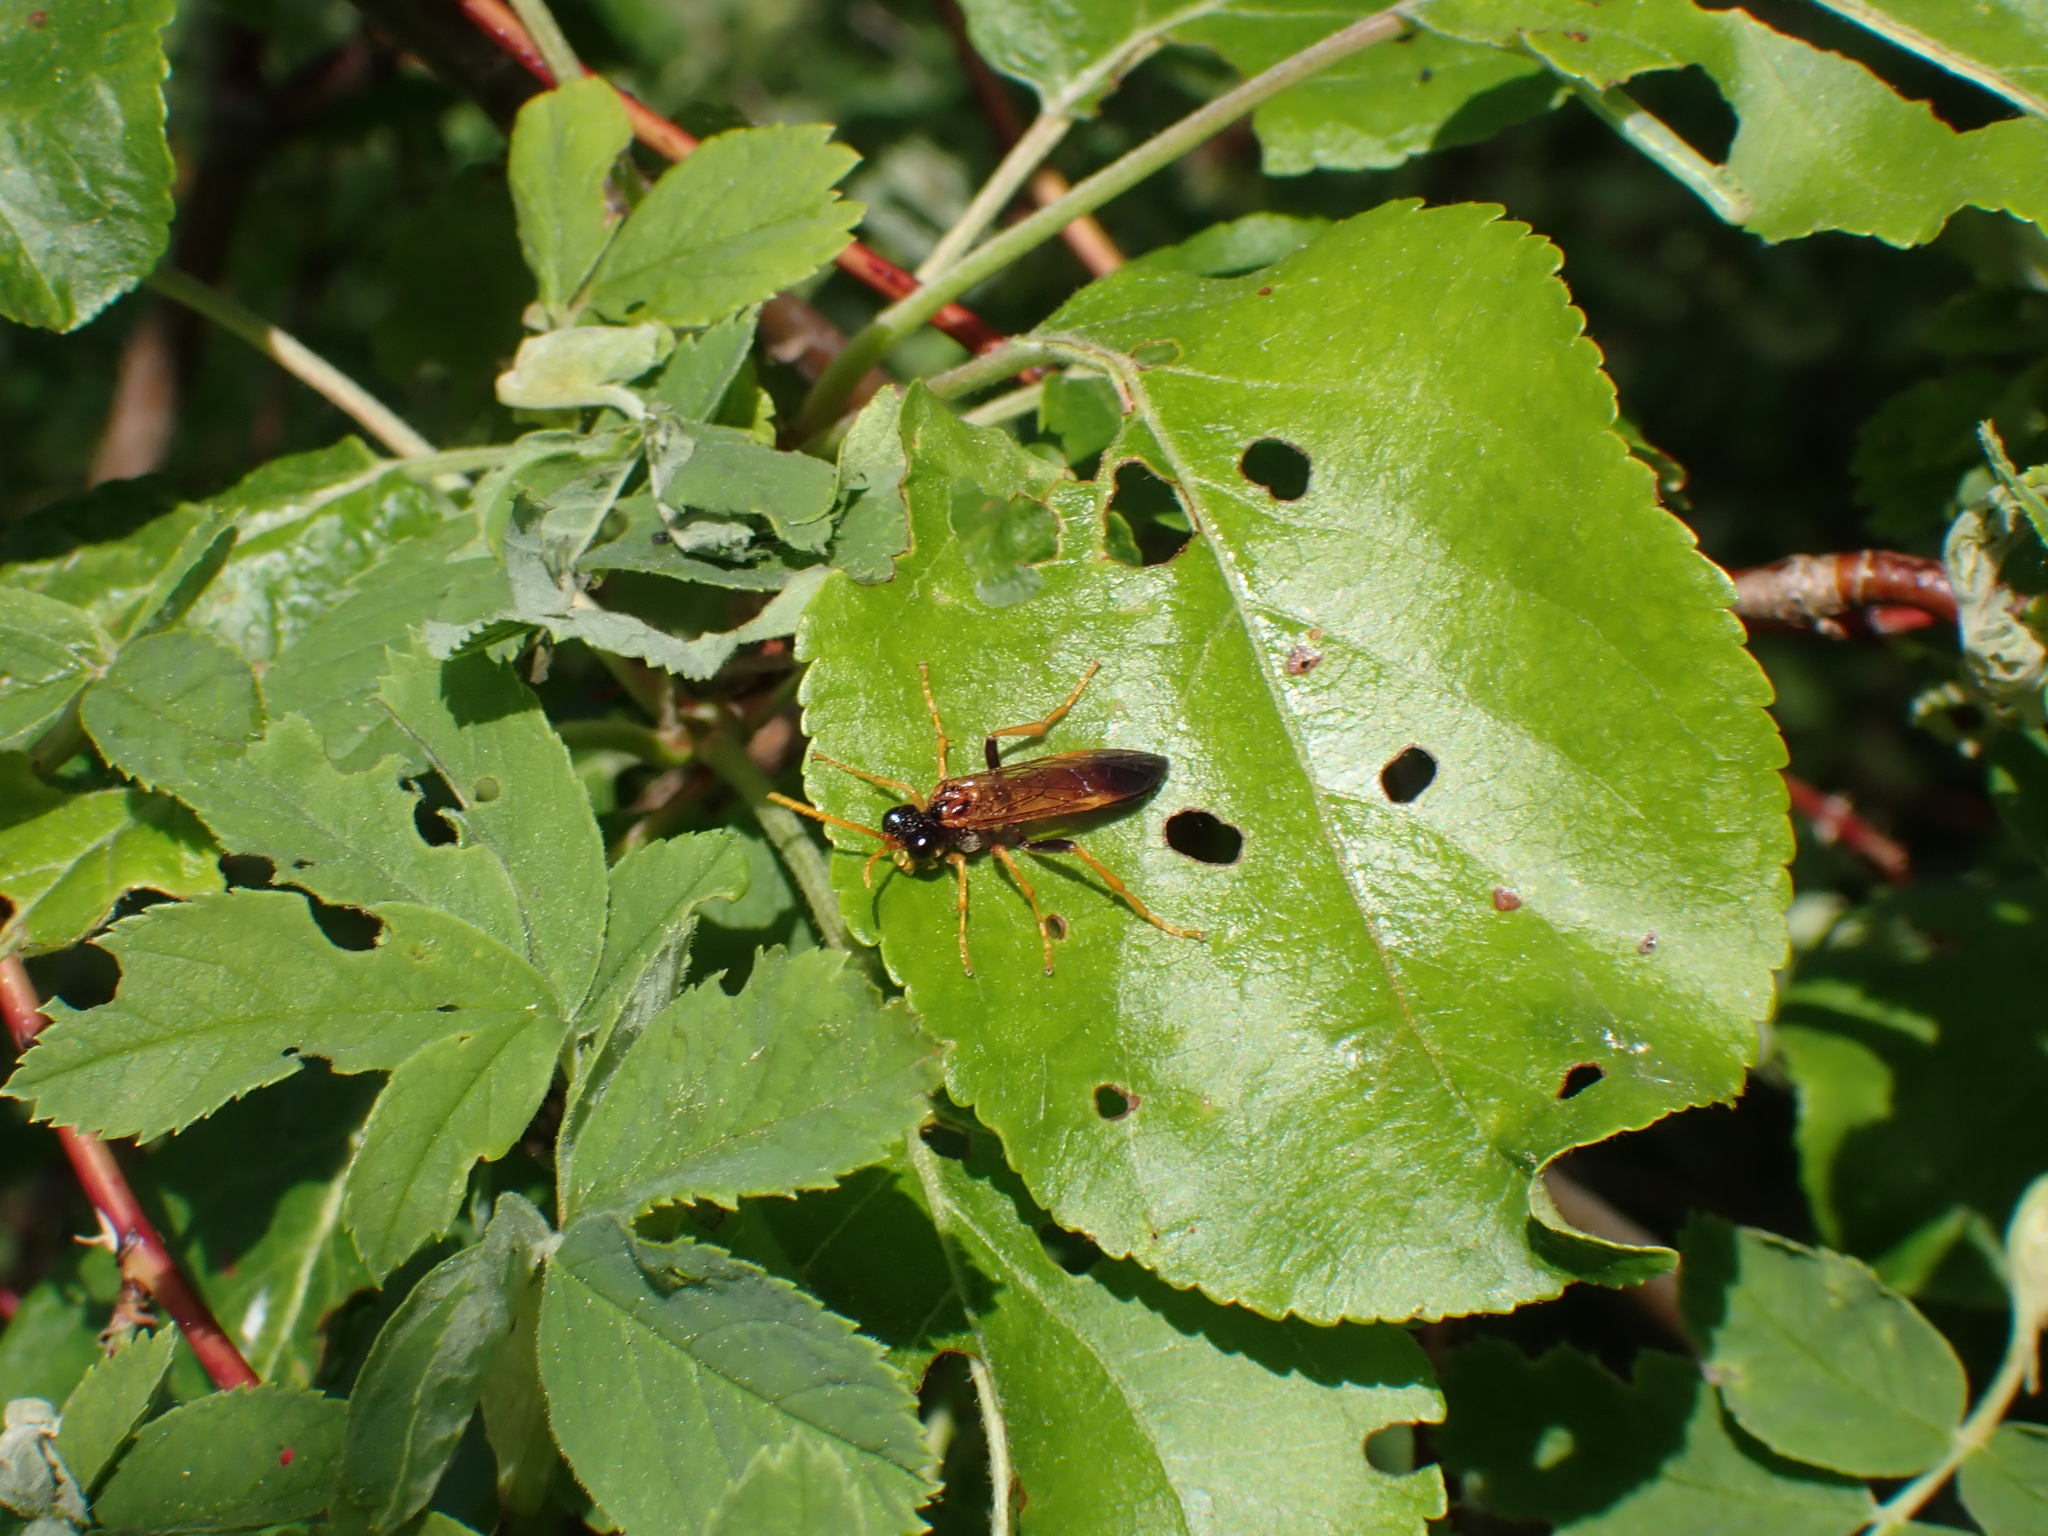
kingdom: Animalia
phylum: Arthropoda
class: Insecta
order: Hymenoptera
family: Tenthredinidae
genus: Tenthredo
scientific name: Tenthredo campestris
